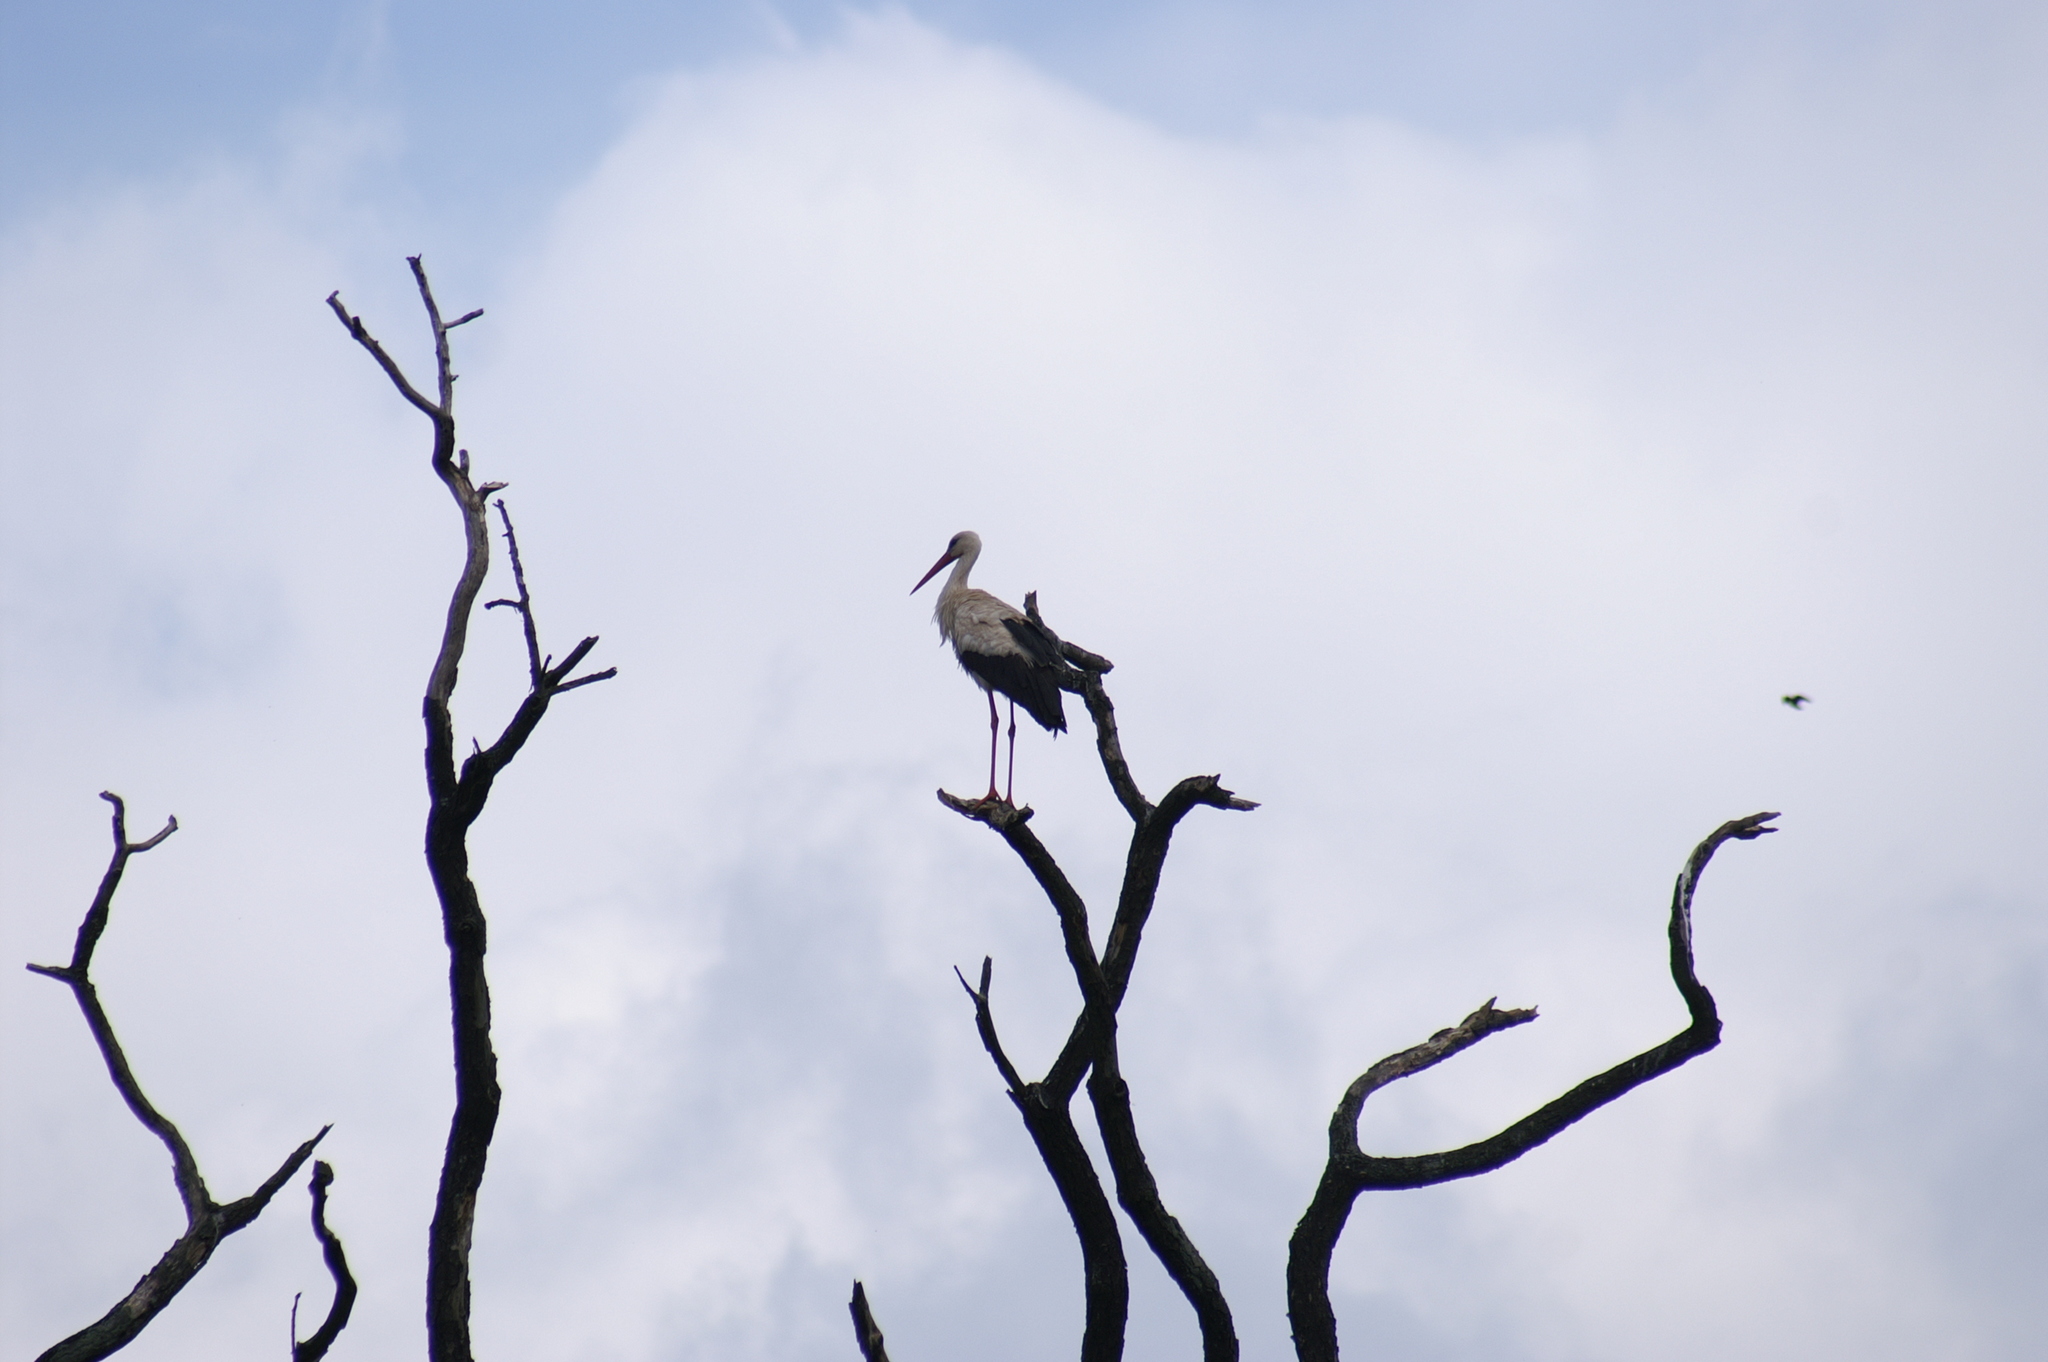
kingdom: Animalia
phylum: Chordata
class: Aves
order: Ciconiiformes
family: Ciconiidae
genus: Ciconia
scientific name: Ciconia ciconia
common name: White stork
